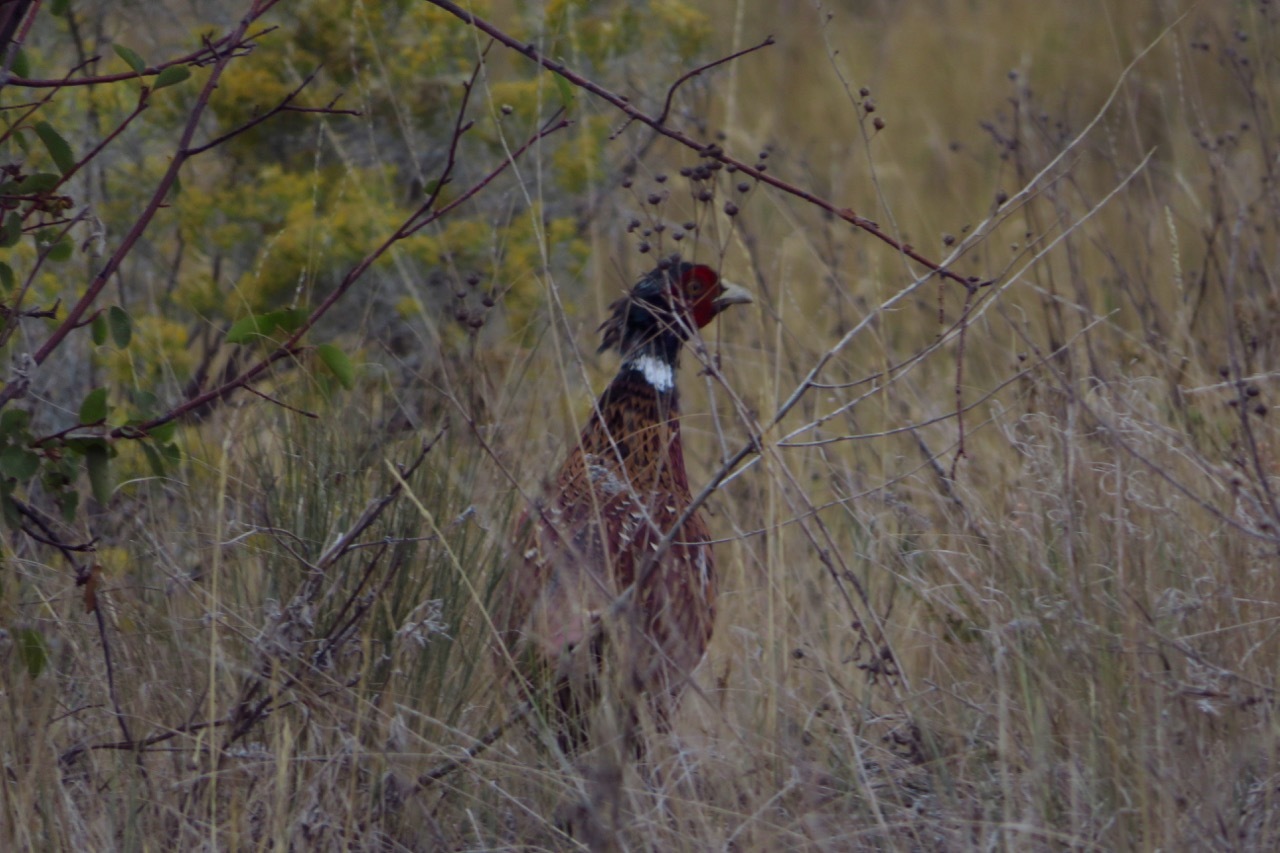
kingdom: Animalia
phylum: Chordata
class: Aves
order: Galliformes
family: Phasianidae
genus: Phasianus
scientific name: Phasianus colchicus
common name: Common pheasant
